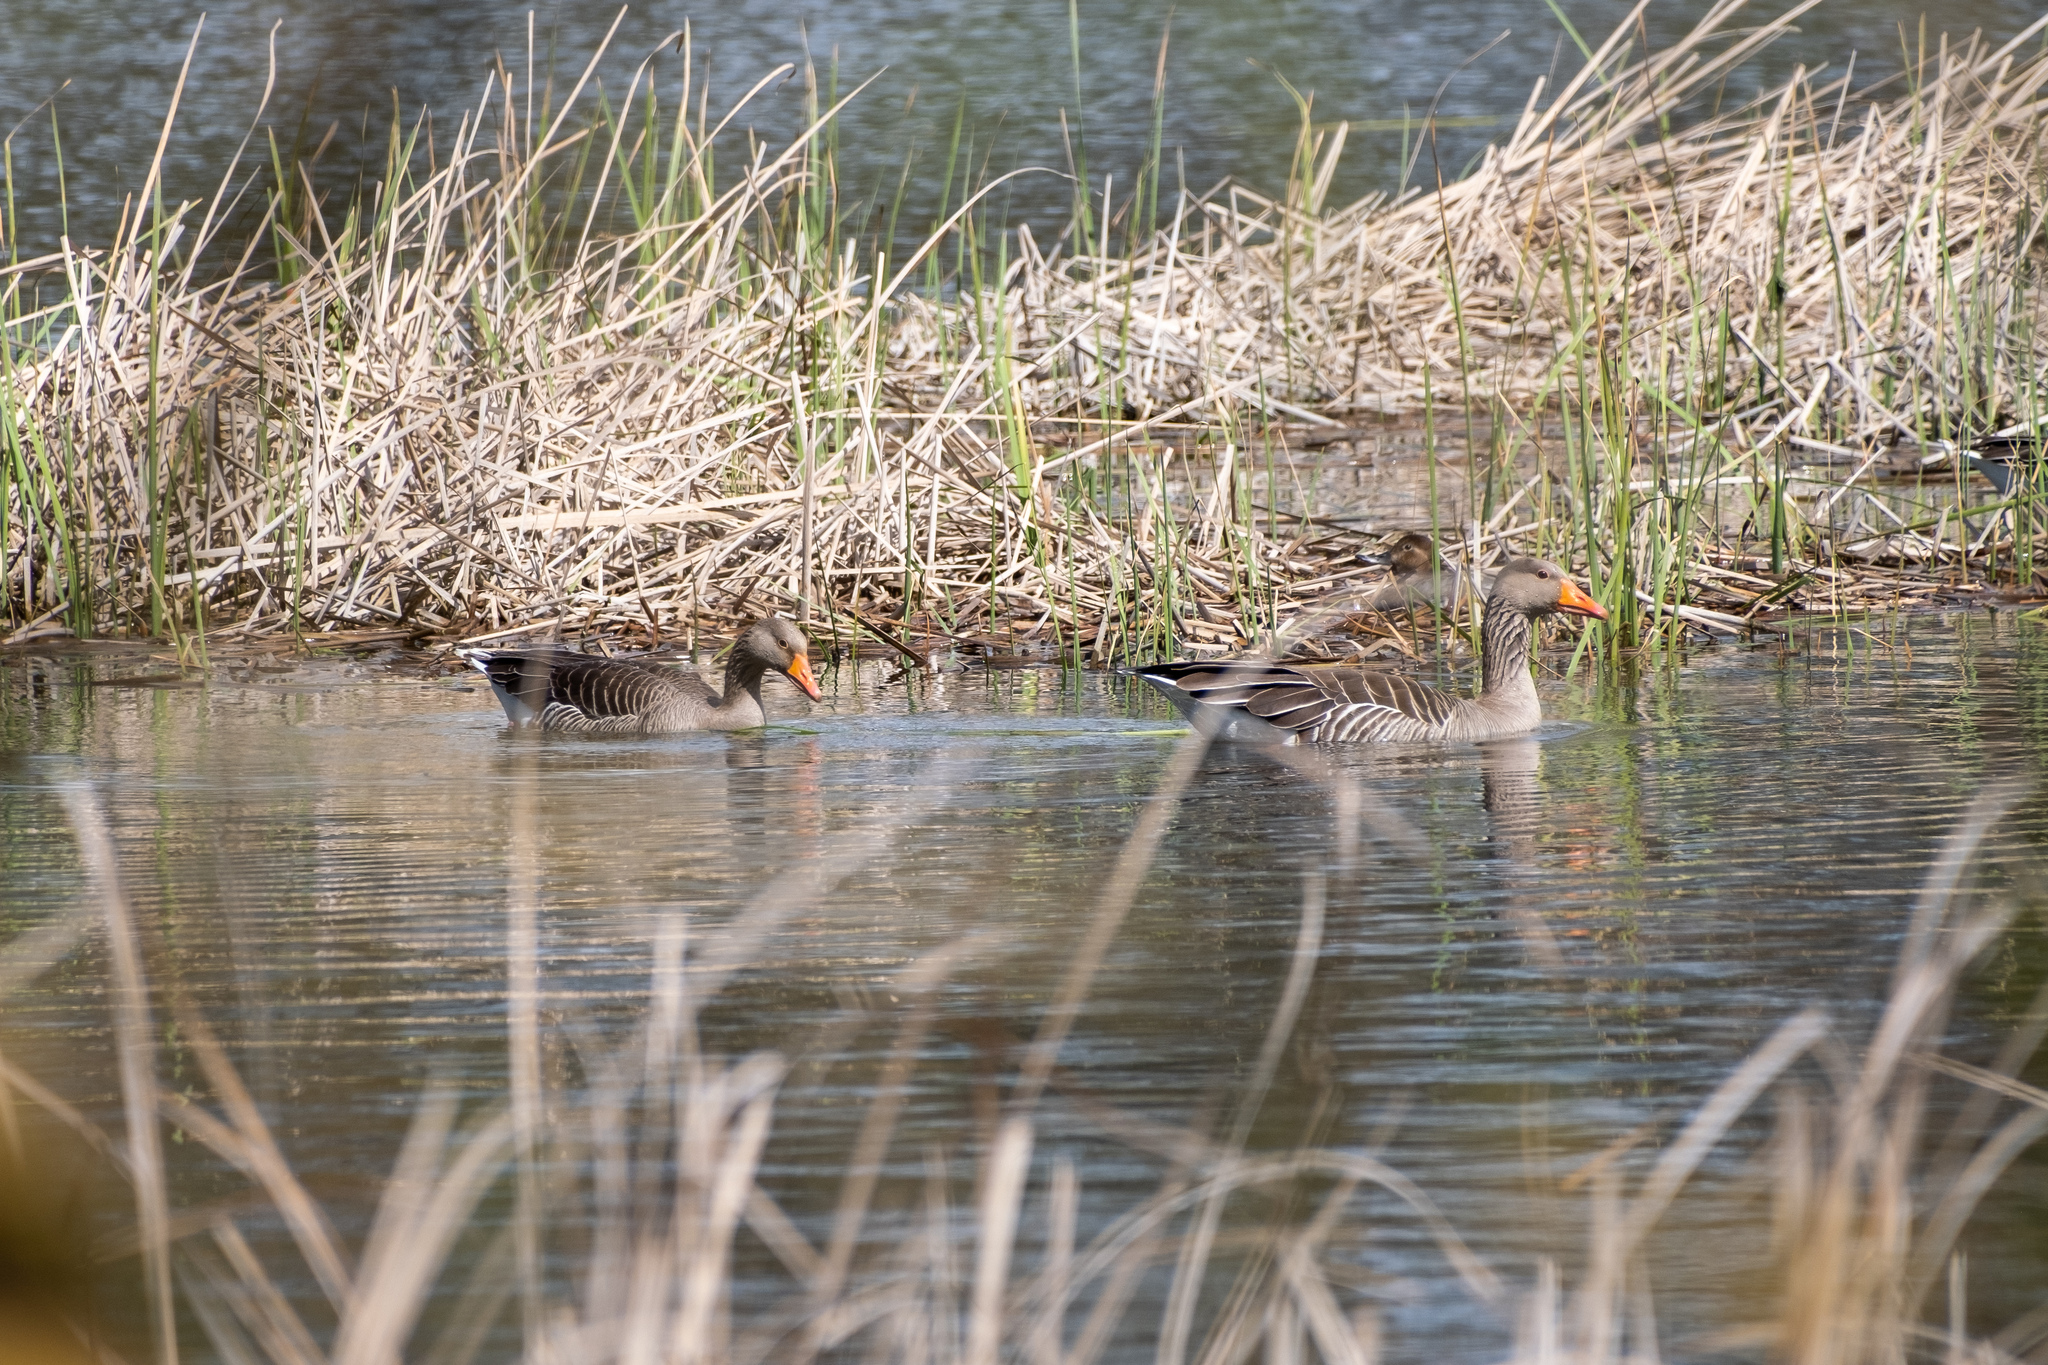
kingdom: Animalia
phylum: Chordata
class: Aves
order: Anseriformes
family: Anatidae
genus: Anser
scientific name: Anser anser
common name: Greylag goose
